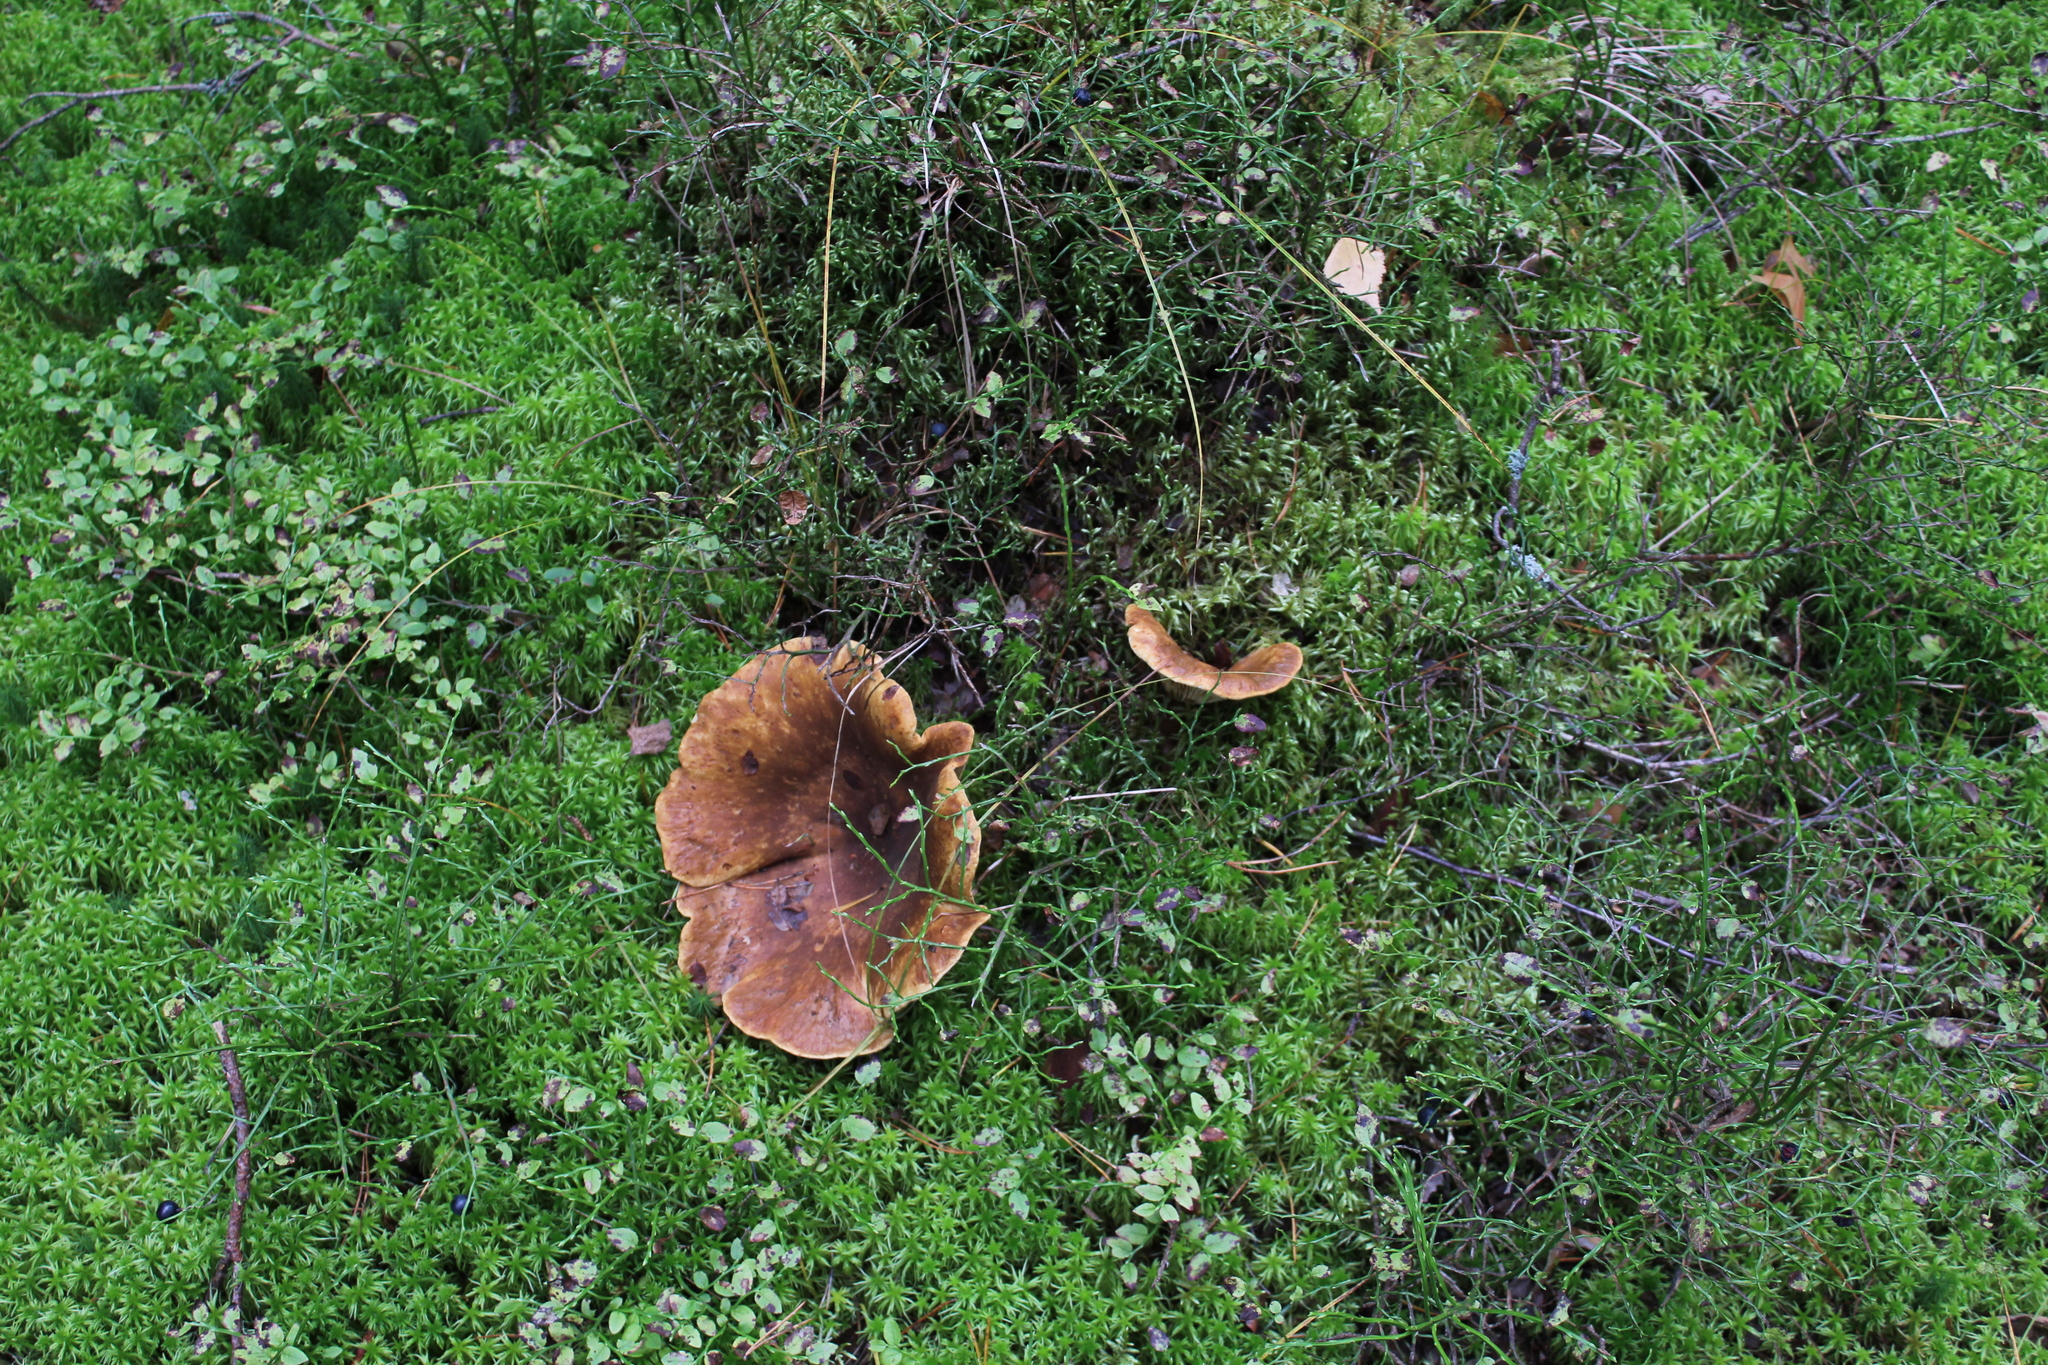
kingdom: Fungi
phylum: Basidiomycota
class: Agaricomycetes
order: Boletales
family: Tapinellaceae
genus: Tapinella
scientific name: Tapinella atrotomentosa
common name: Velvet rollrim
